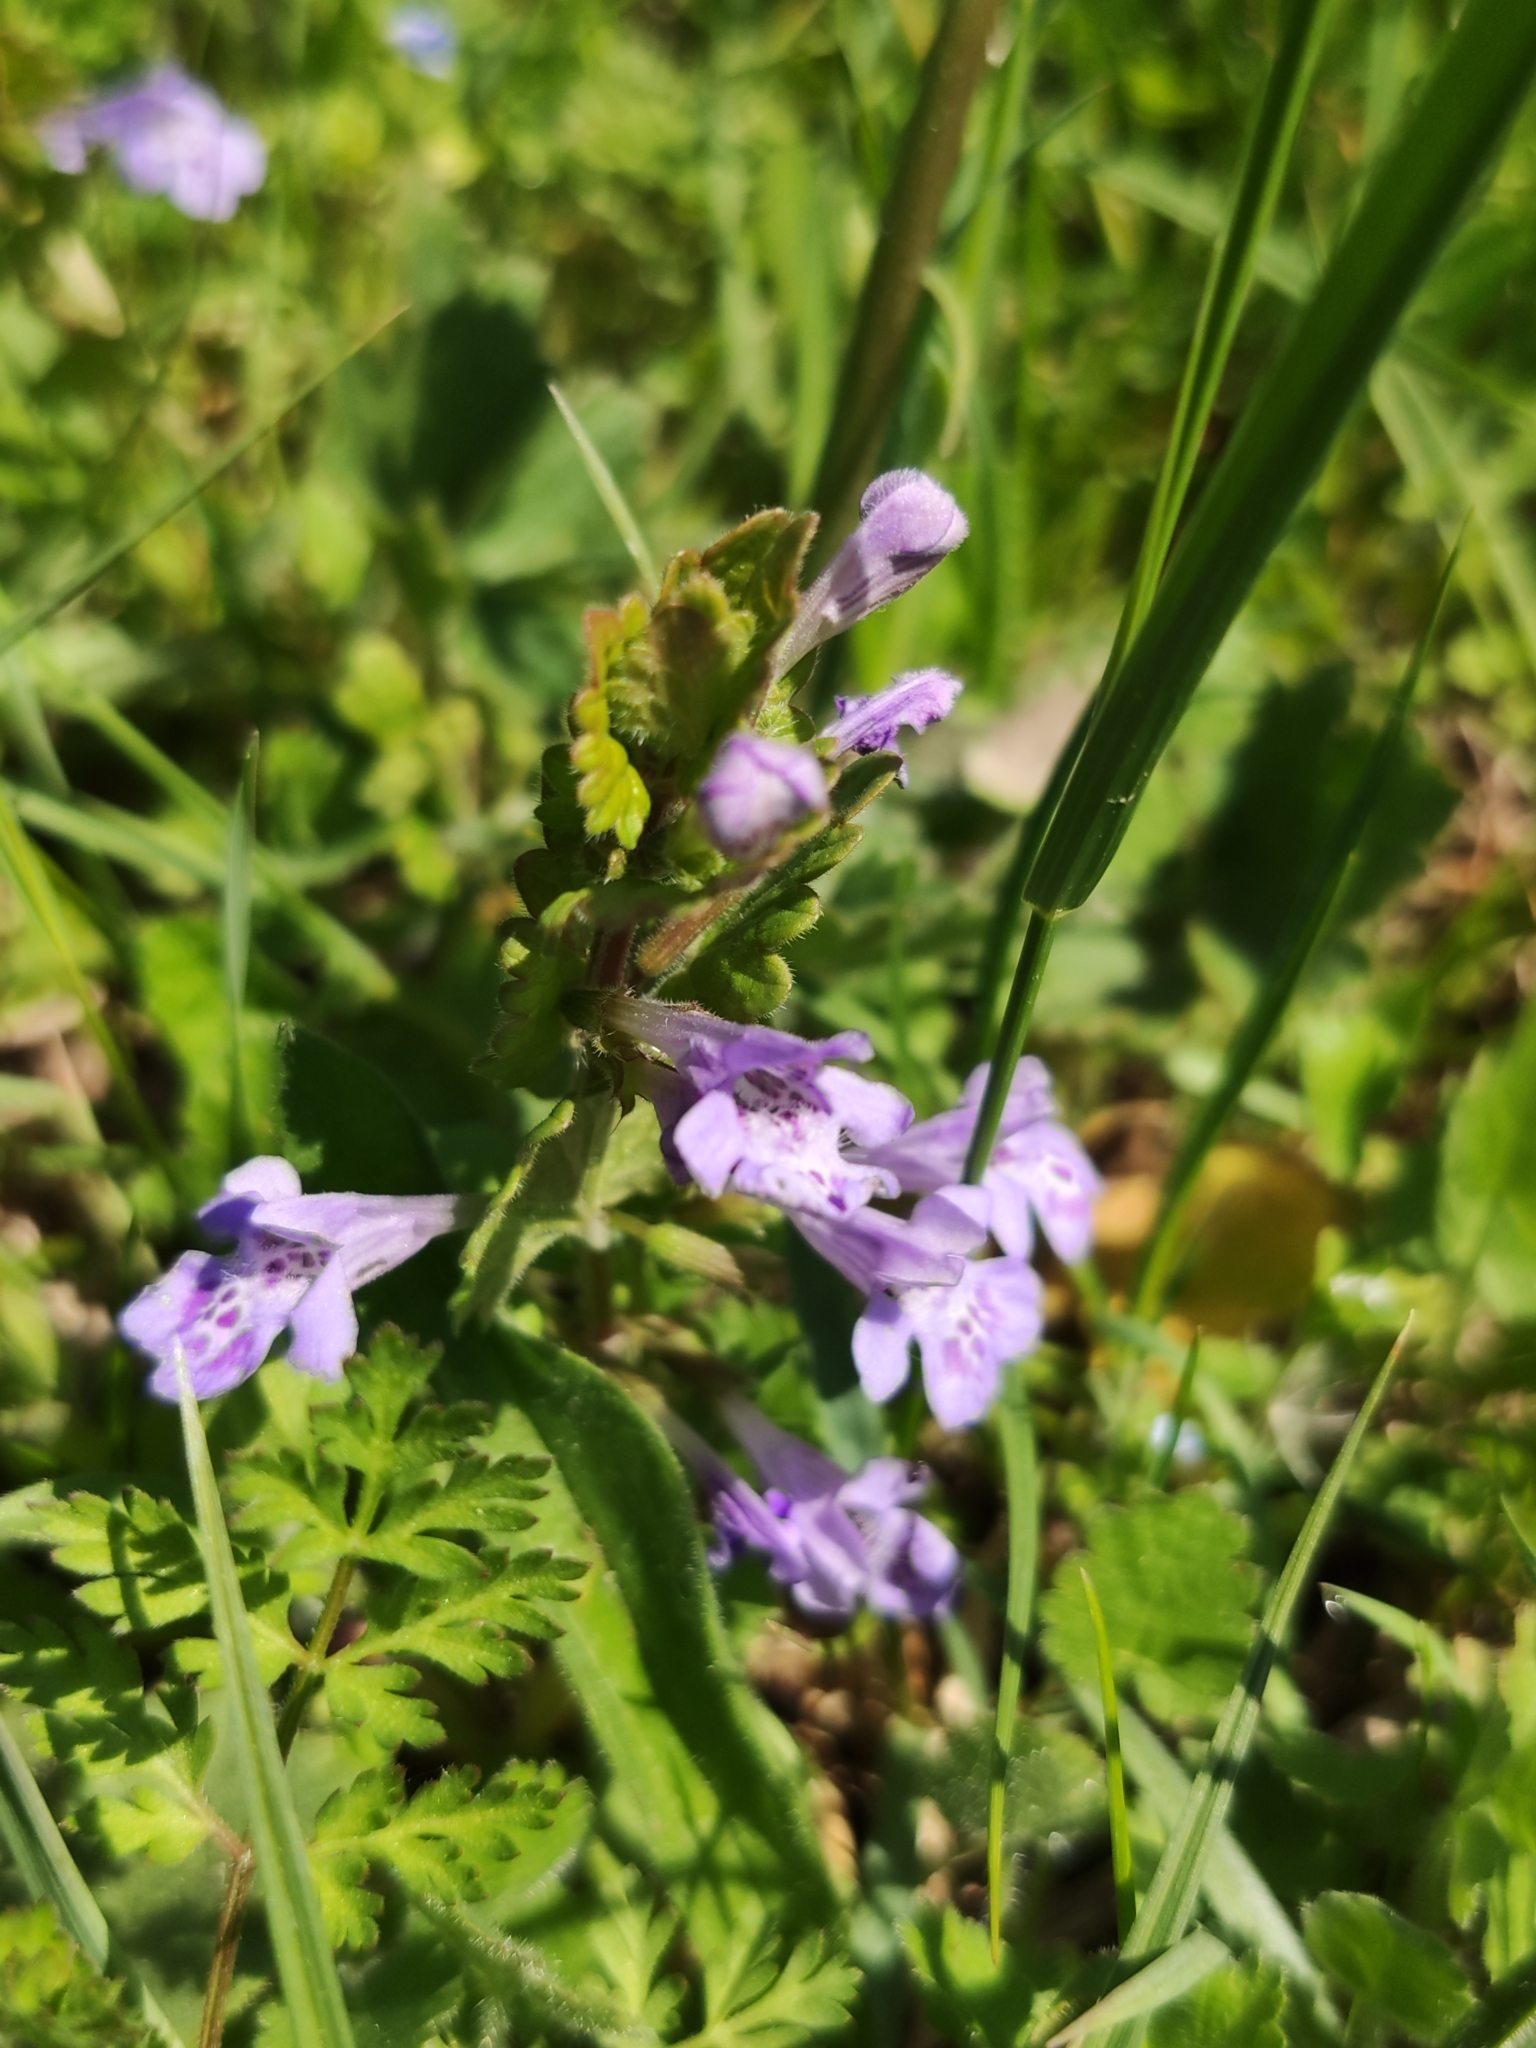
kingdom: Plantae
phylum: Tracheophyta
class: Magnoliopsida
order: Lamiales
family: Lamiaceae
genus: Glechoma
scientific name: Glechoma hederacea
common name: Ground ivy
